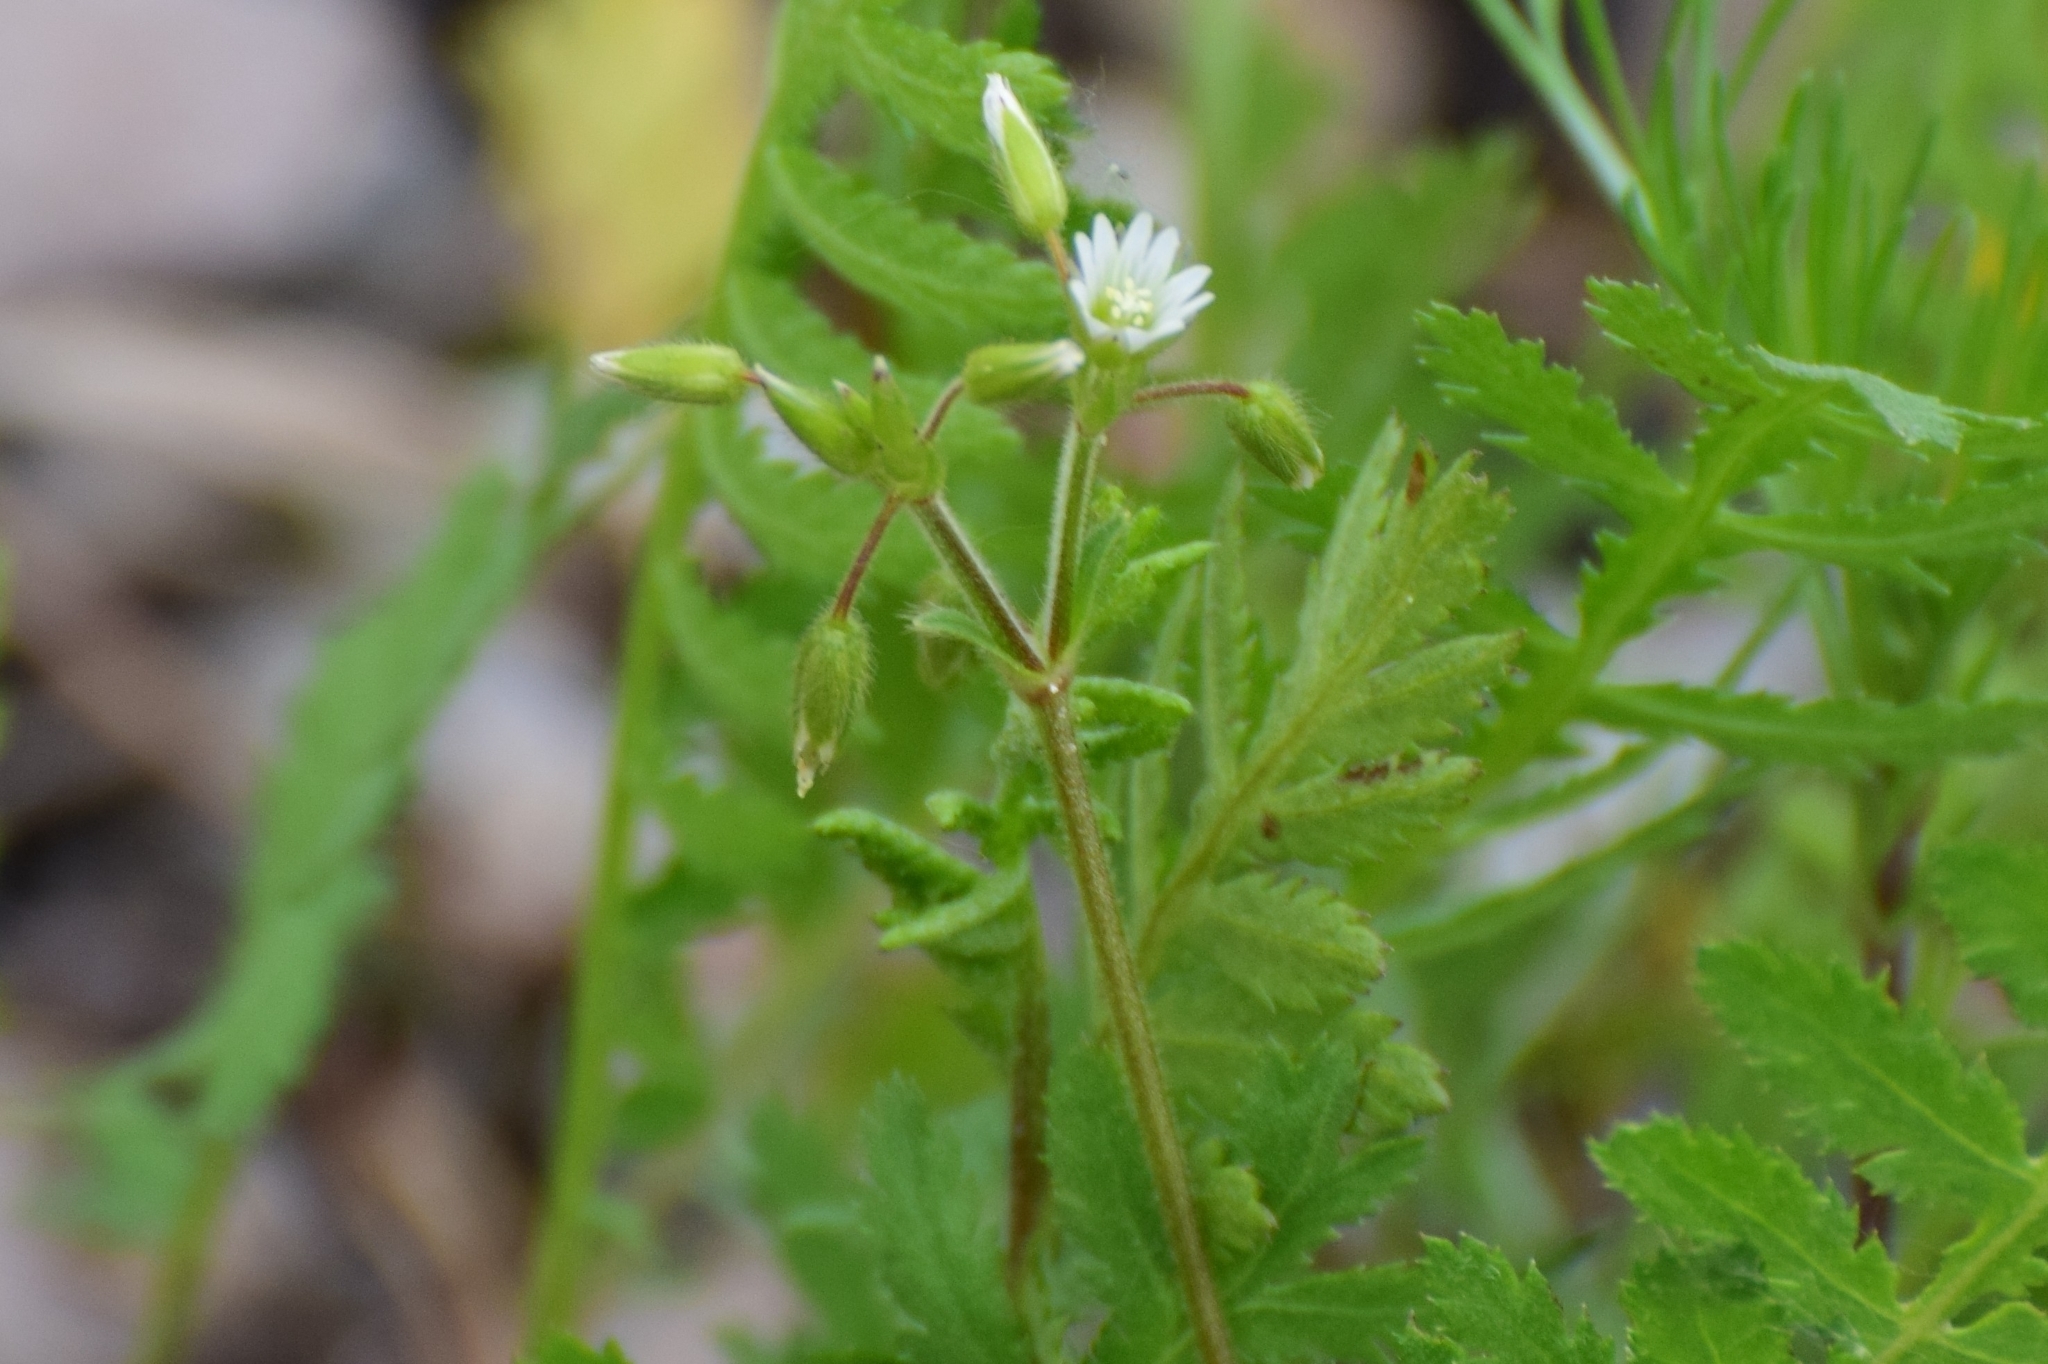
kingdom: Plantae
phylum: Tracheophyta
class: Magnoliopsida
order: Caryophyllales
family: Caryophyllaceae
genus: Cerastium
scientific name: Cerastium holosteoides
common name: Big chickweed
